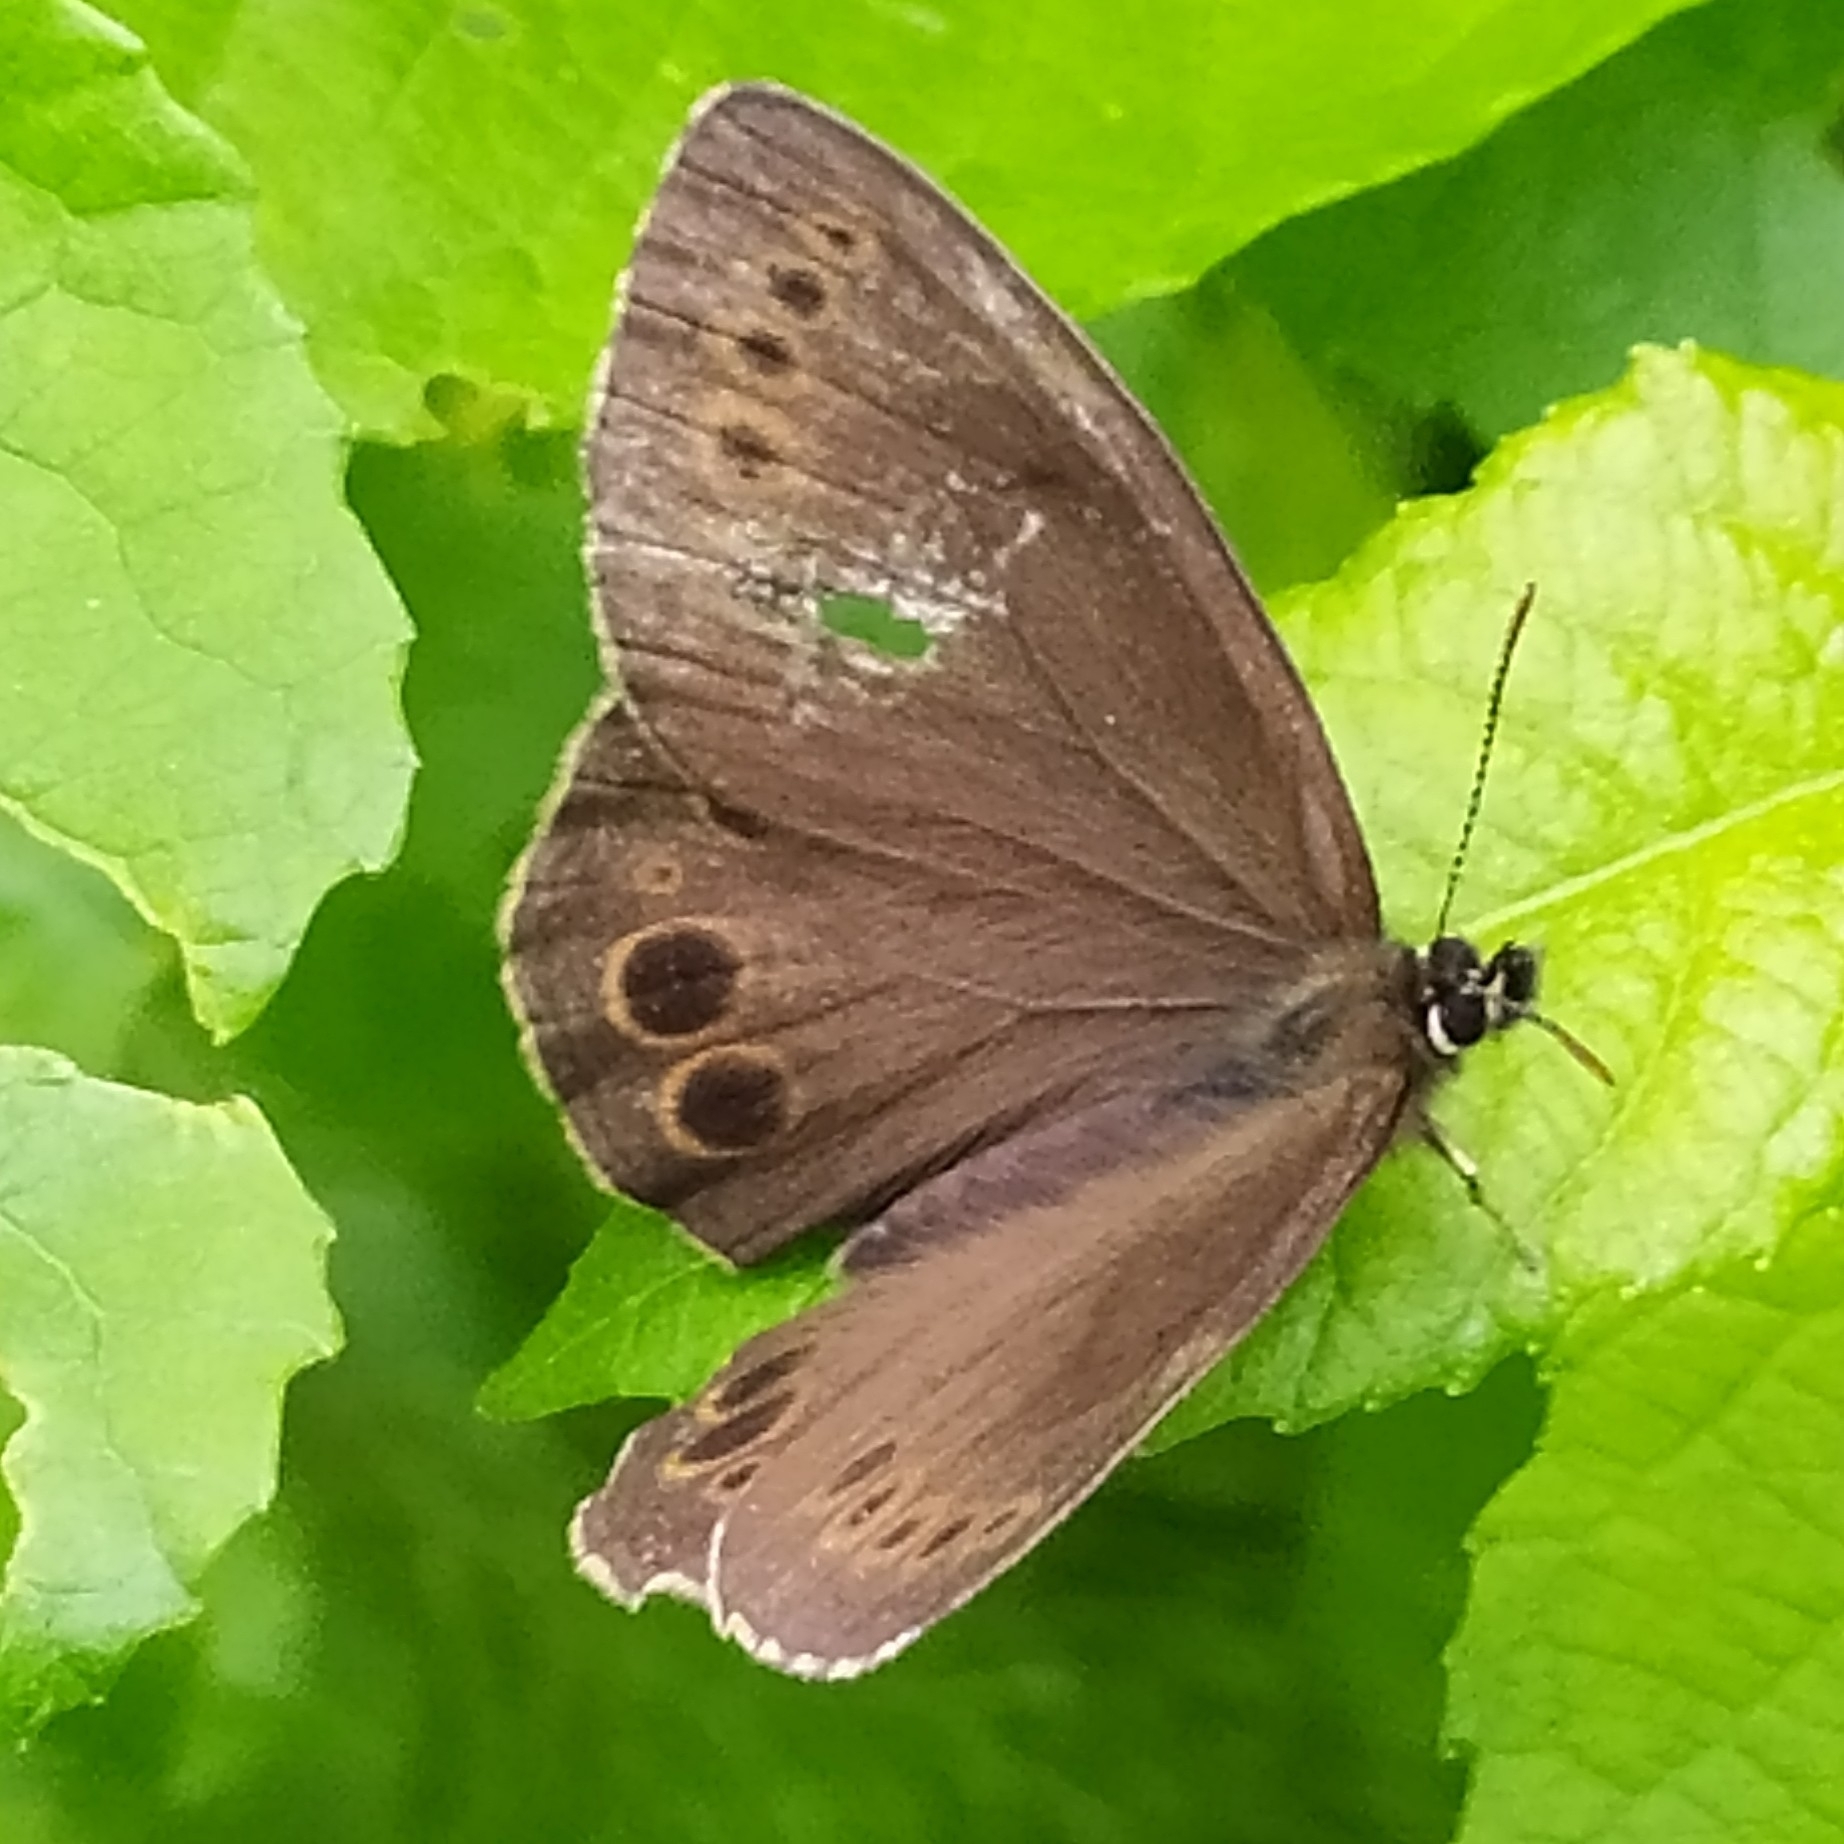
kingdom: Animalia
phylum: Arthropoda
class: Insecta
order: Lepidoptera
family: Nymphalidae
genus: Pararge
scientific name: Pararge Lopinga achine
